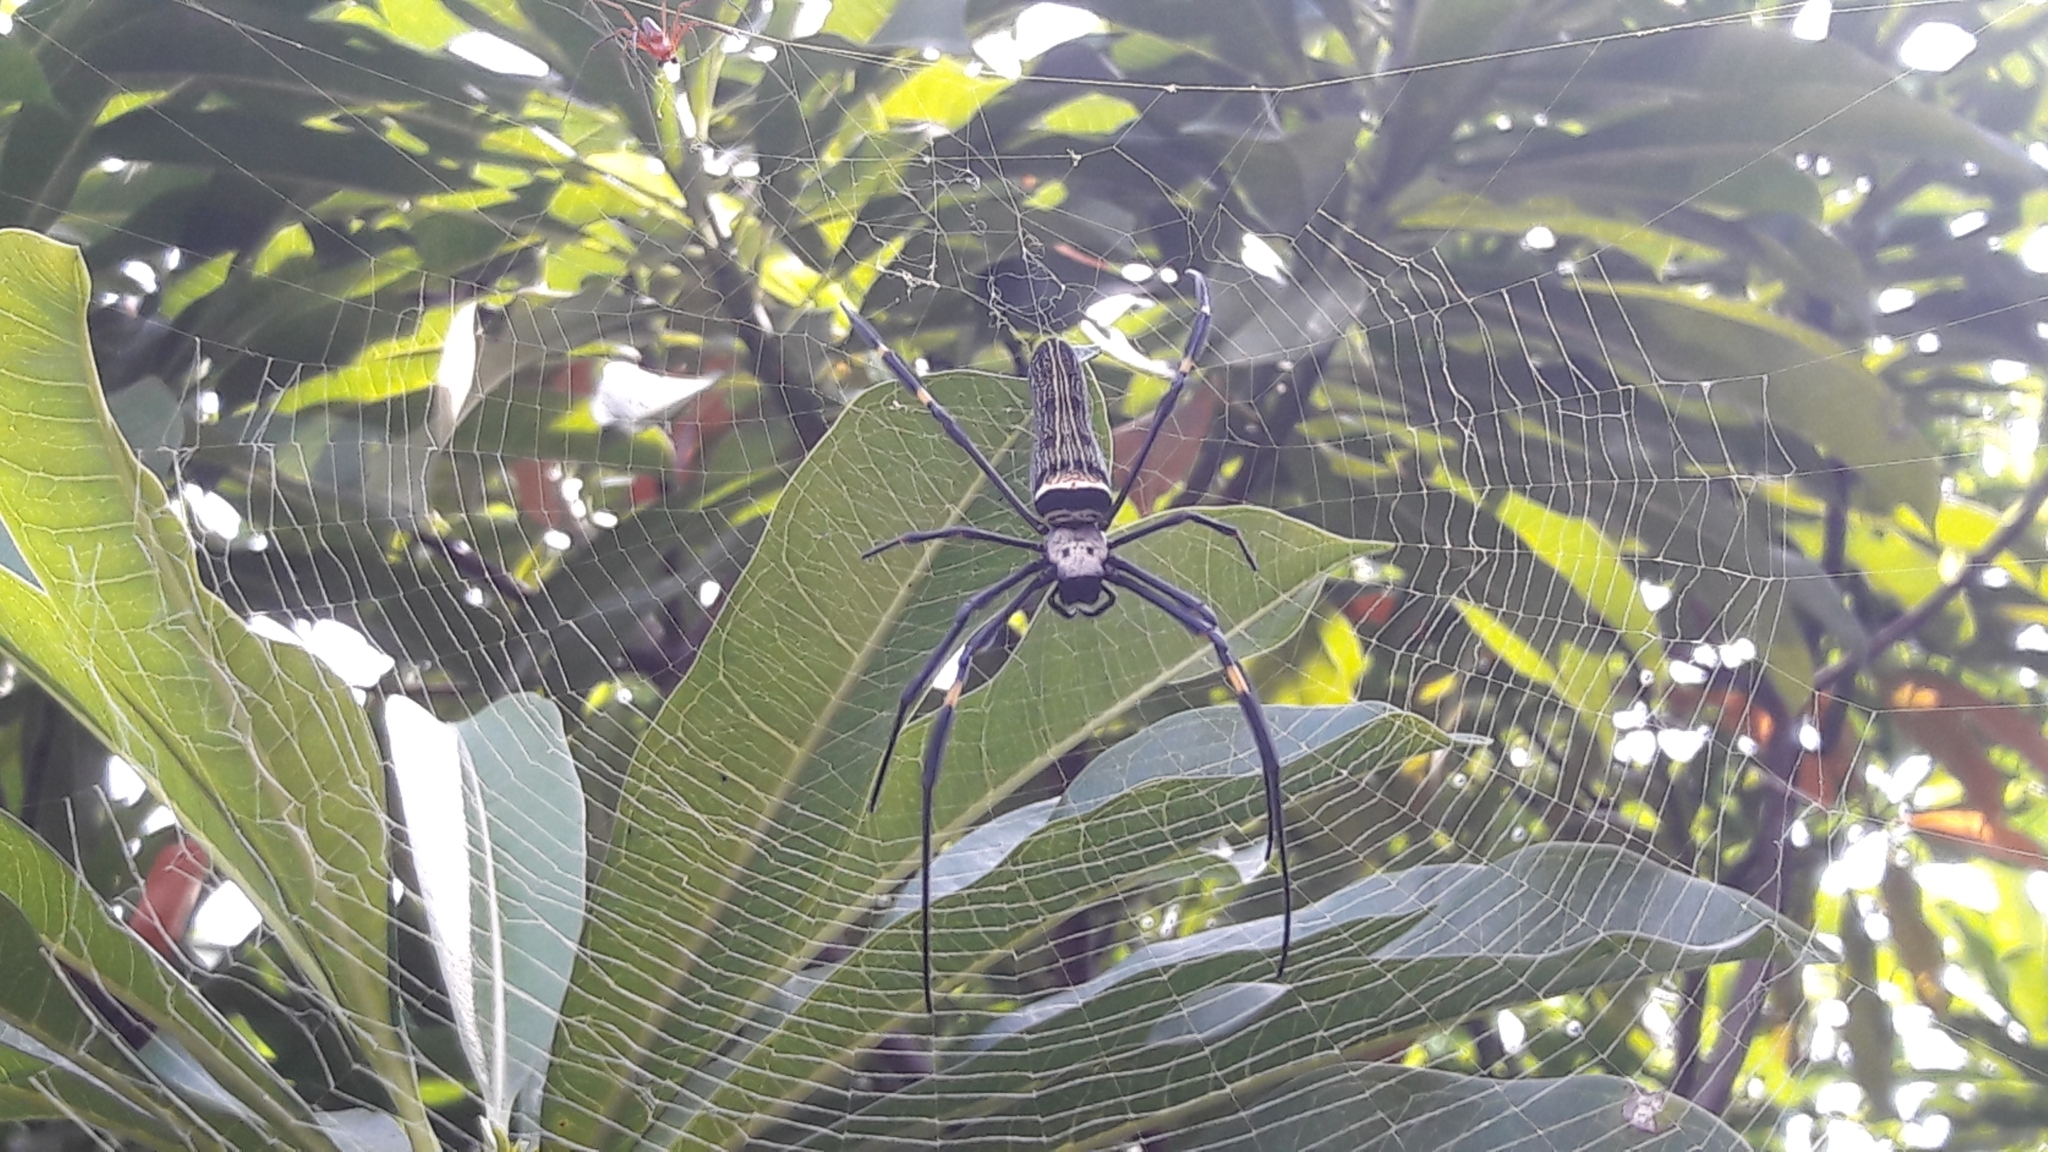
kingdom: Animalia
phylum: Arthropoda
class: Arachnida
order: Araneae
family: Araneidae
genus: Nephila
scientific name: Nephila pilipes
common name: Giant golden orb weaver
